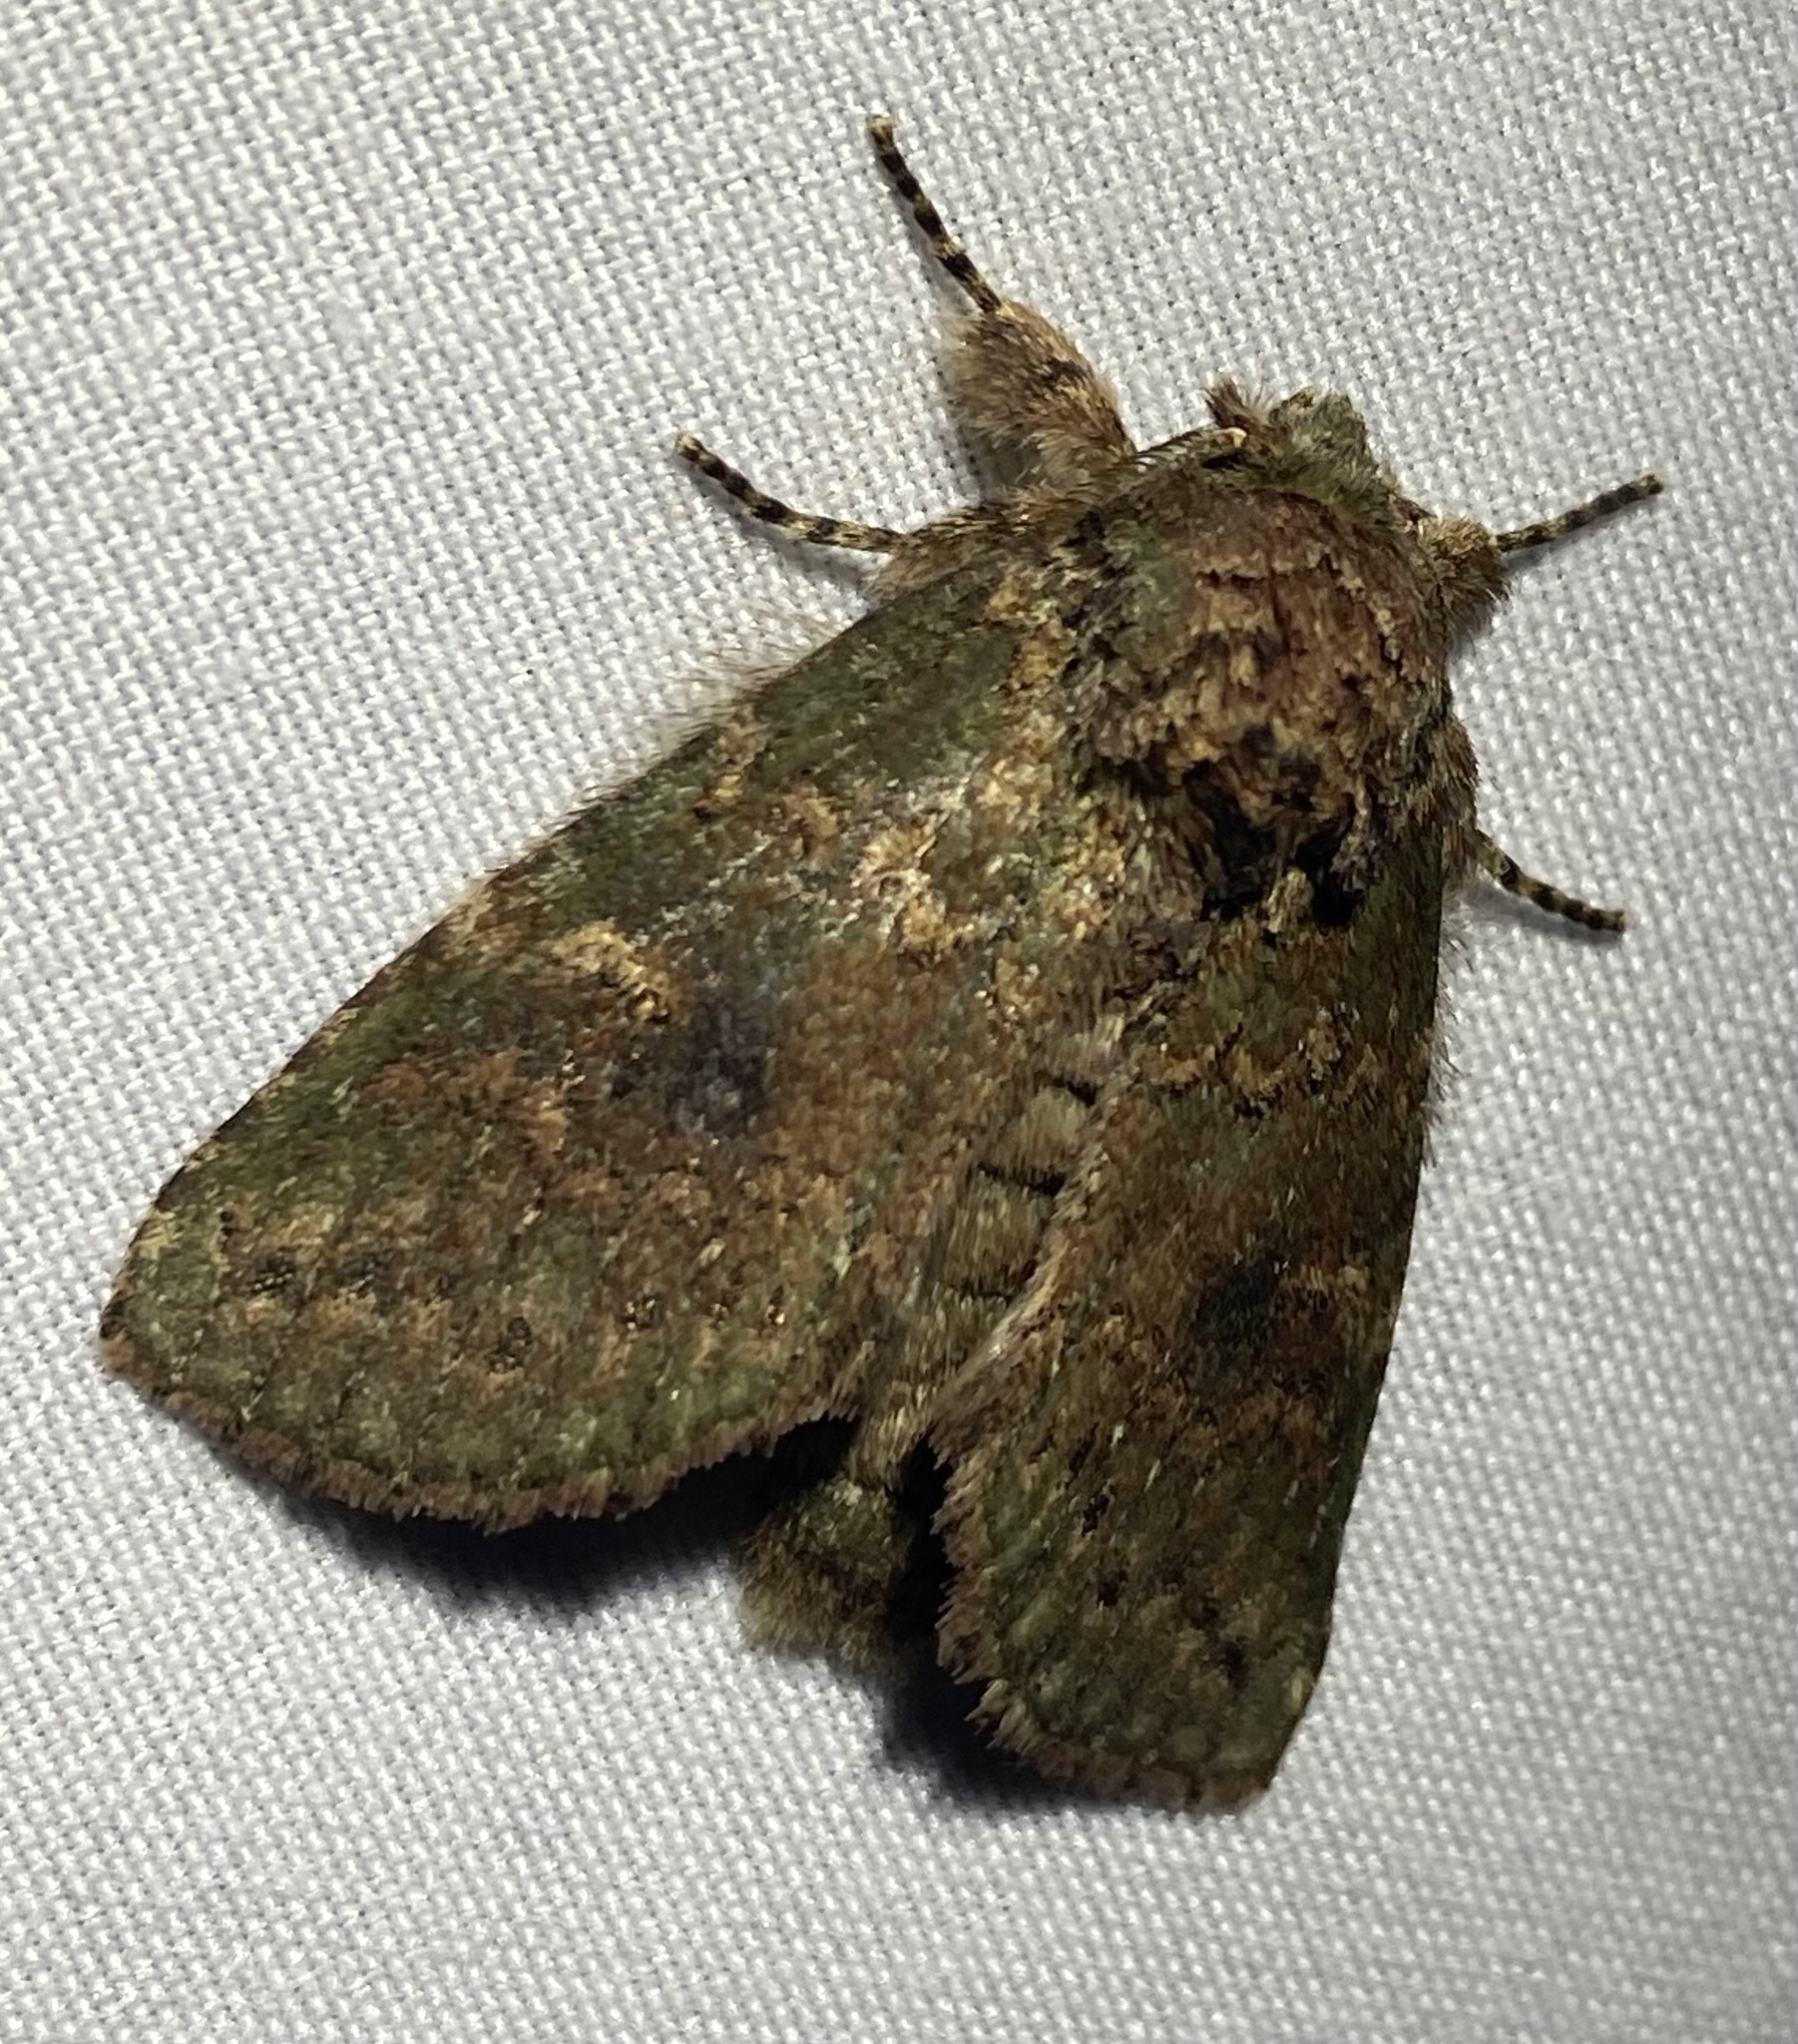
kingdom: Animalia
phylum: Arthropoda
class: Insecta
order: Lepidoptera
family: Notodontidae
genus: Disphragis
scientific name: Disphragis Cecrita biundata
